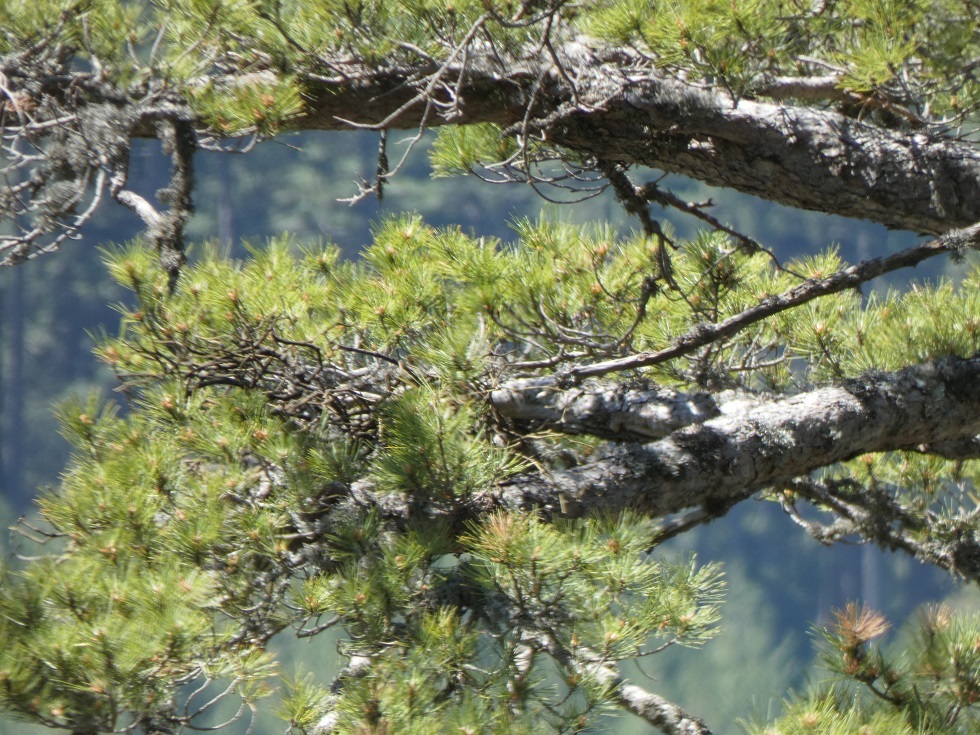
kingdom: Plantae
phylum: Tracheophyta
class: Pinopsida
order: Pinales
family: Pinaceae
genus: Pinus
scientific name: Pinus nigra
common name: Austrian pine
